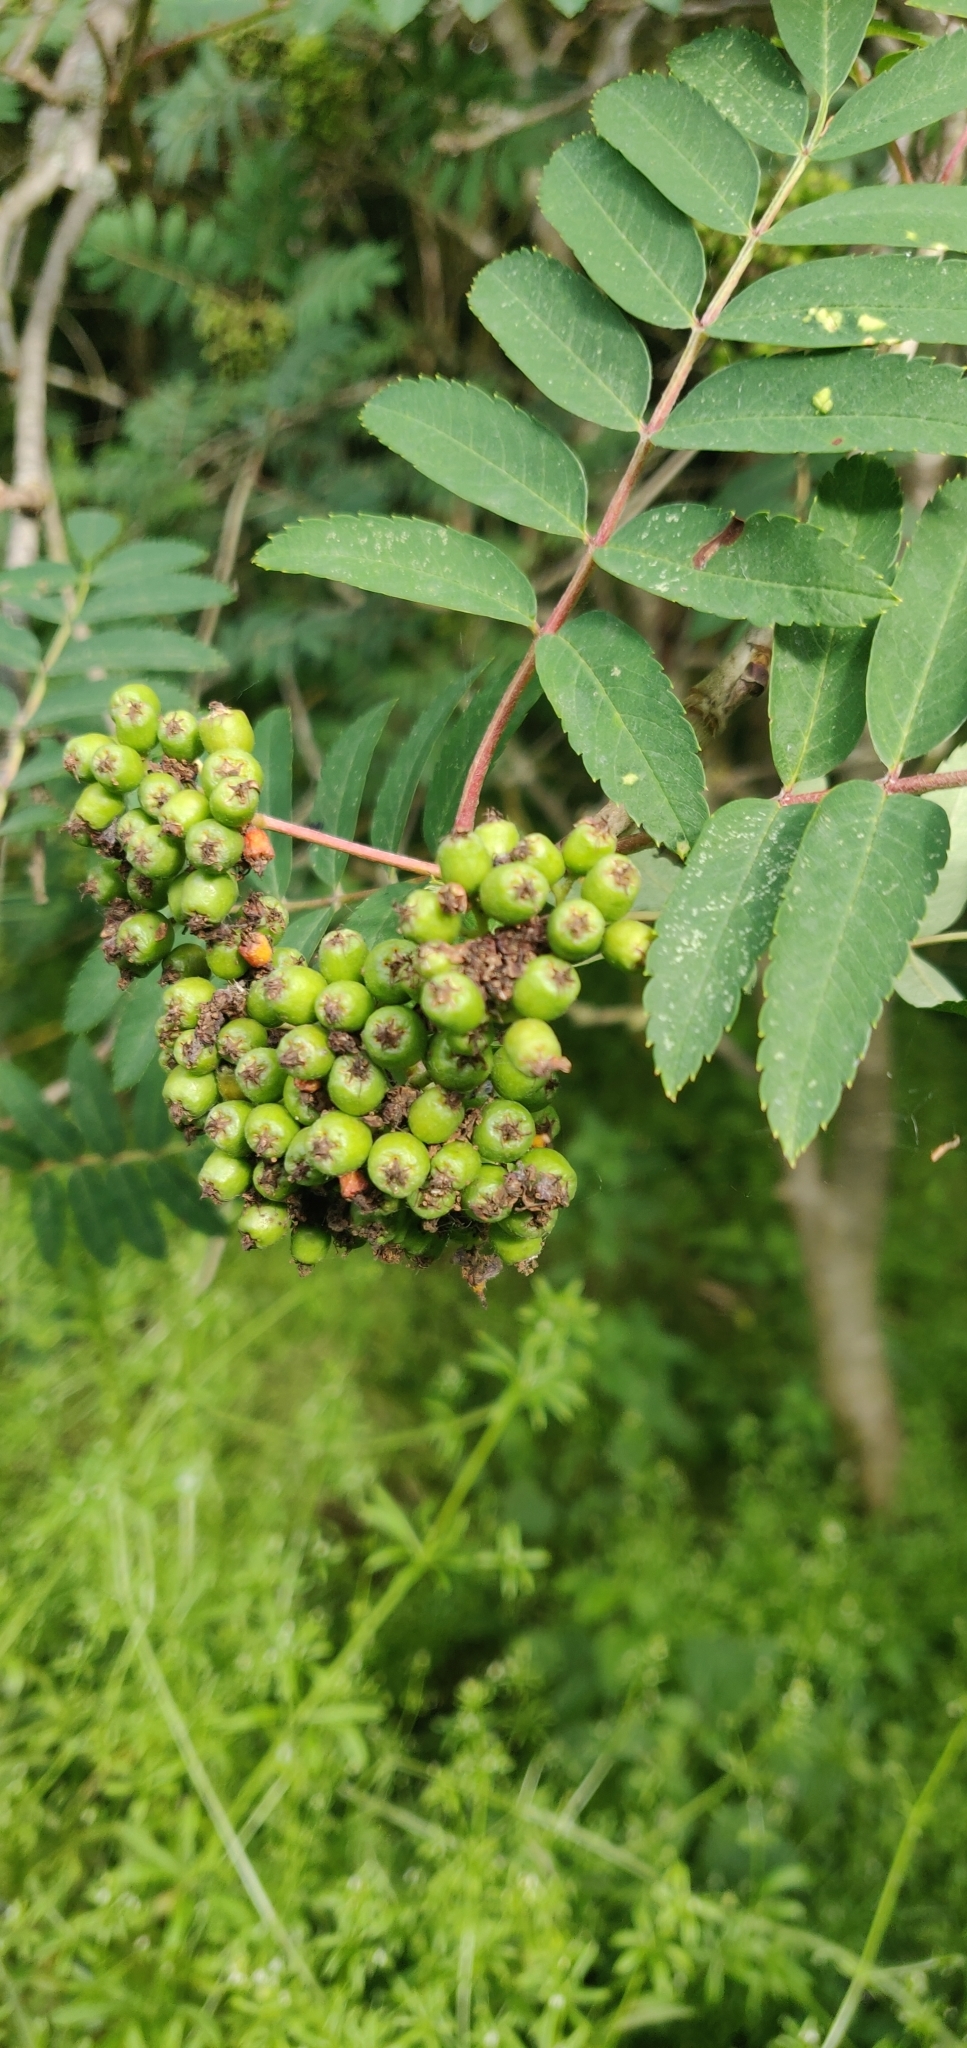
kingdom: Plantae
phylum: Tracheophyta
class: Magnoliopsida
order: Rosales
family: Rosaceae
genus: Sorbus
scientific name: Sorbus aucuparia
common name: Rowan
